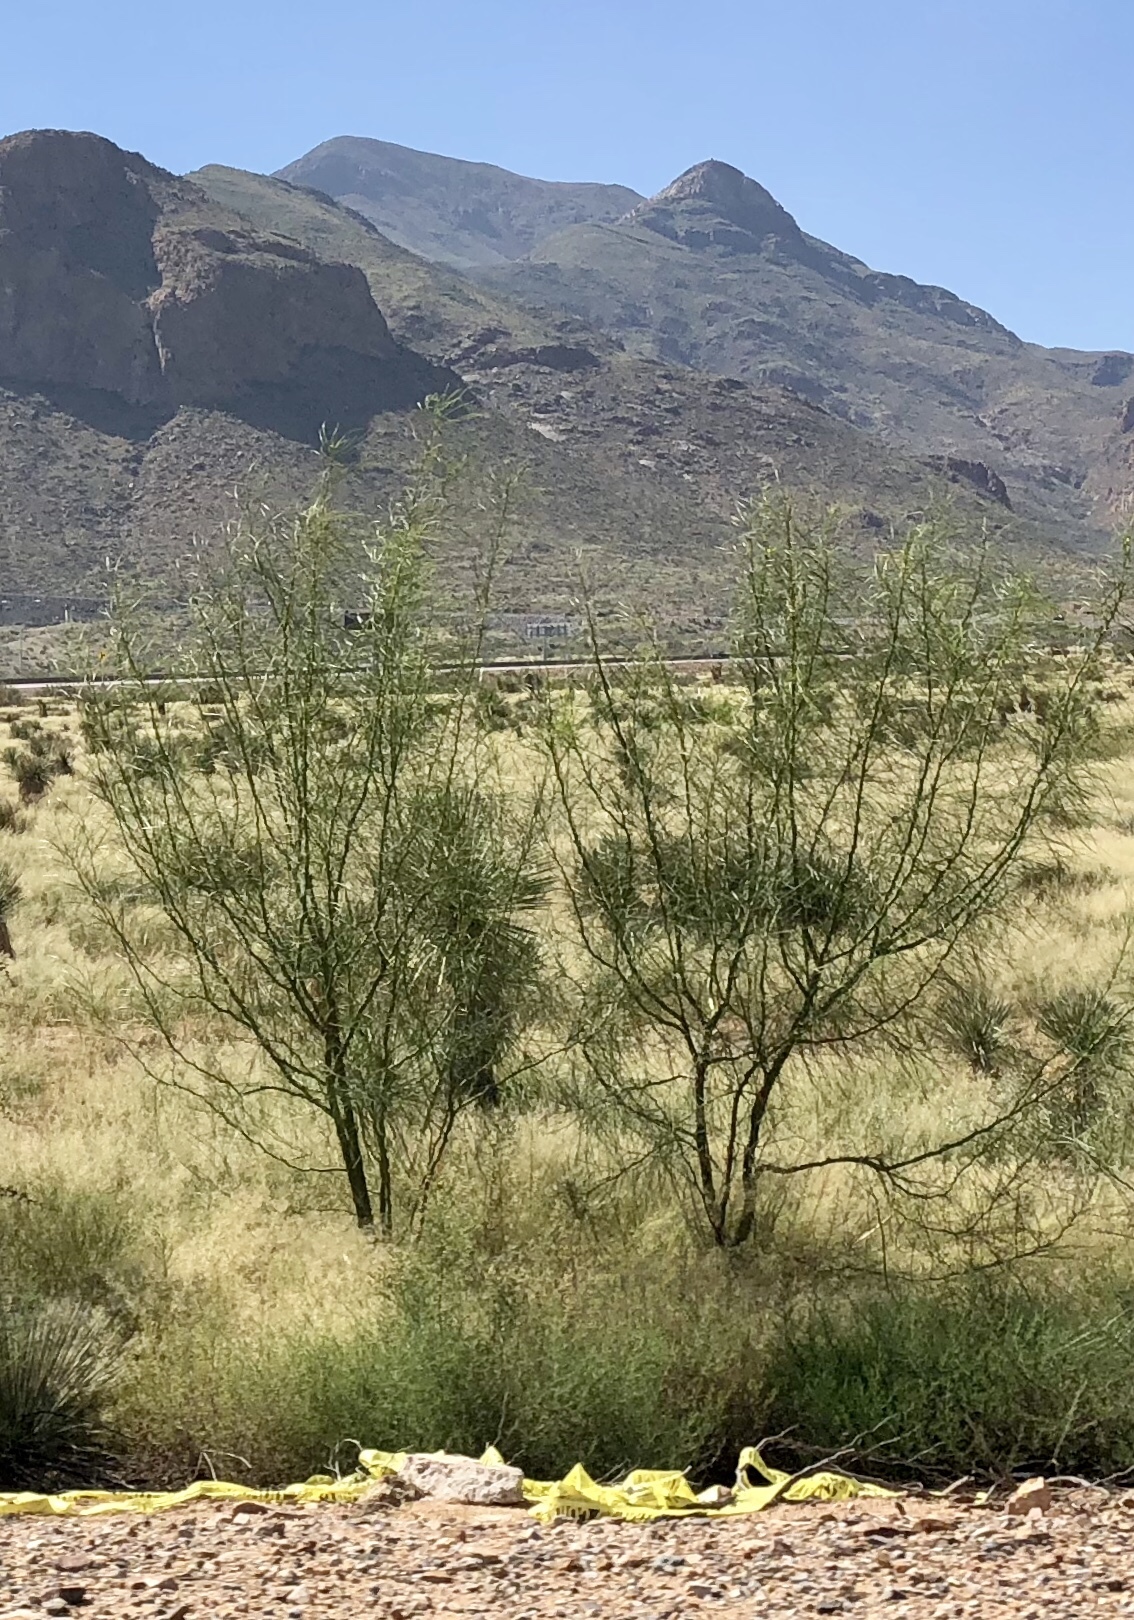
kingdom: Plantae
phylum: Tracheophyta
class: Magnoliopsida
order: Fabales
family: Fabaceae
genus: Parkinsonia
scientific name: Parkinsonia aculeata
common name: Jerusalem thorn
